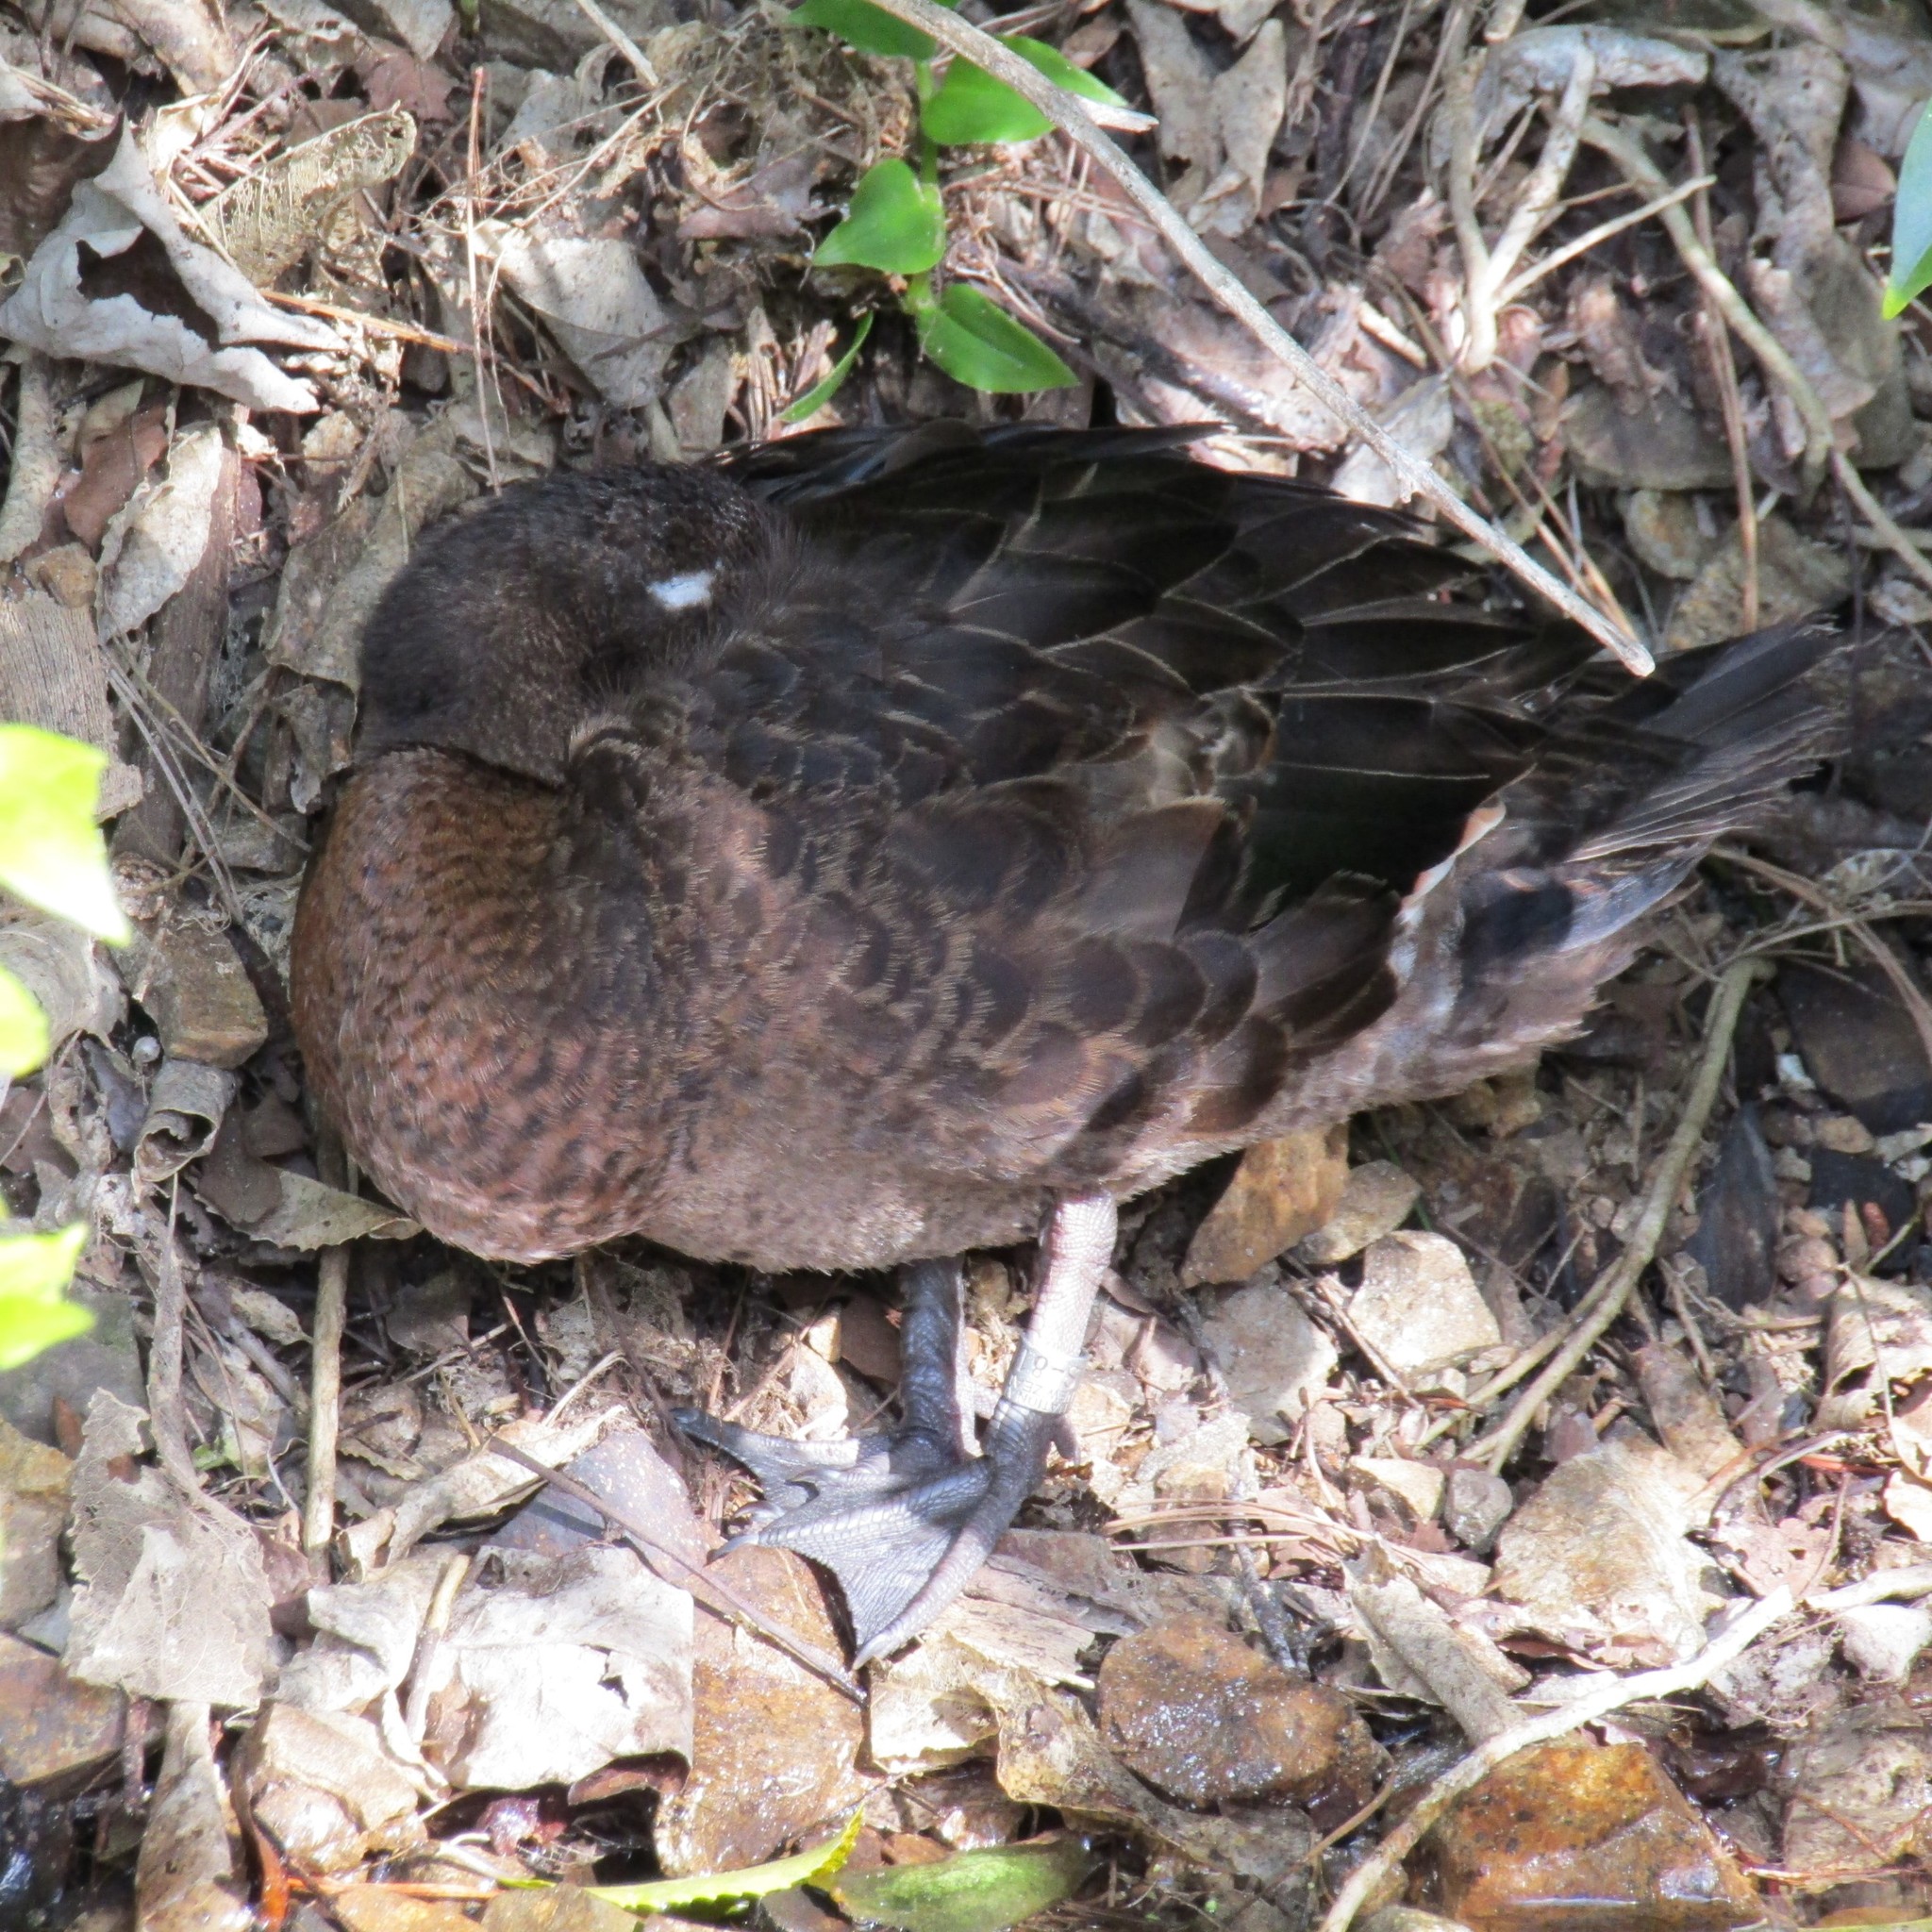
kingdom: Animalia
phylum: Chordata
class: Aves
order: Anseriformes
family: Anatidae
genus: Anas
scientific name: Anas chlorotis
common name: Brown teal
